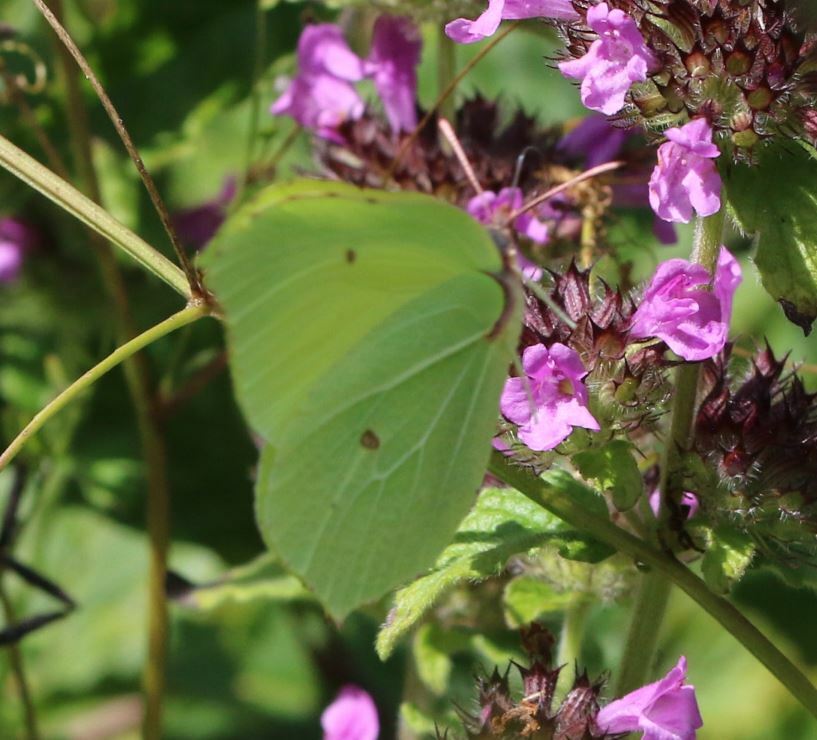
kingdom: Animalia
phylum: Arthropoda
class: Insecta
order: Lepidoptera
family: Pieridae
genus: Gonepteryx
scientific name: Gonepteryx rhamni
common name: Brimstone
